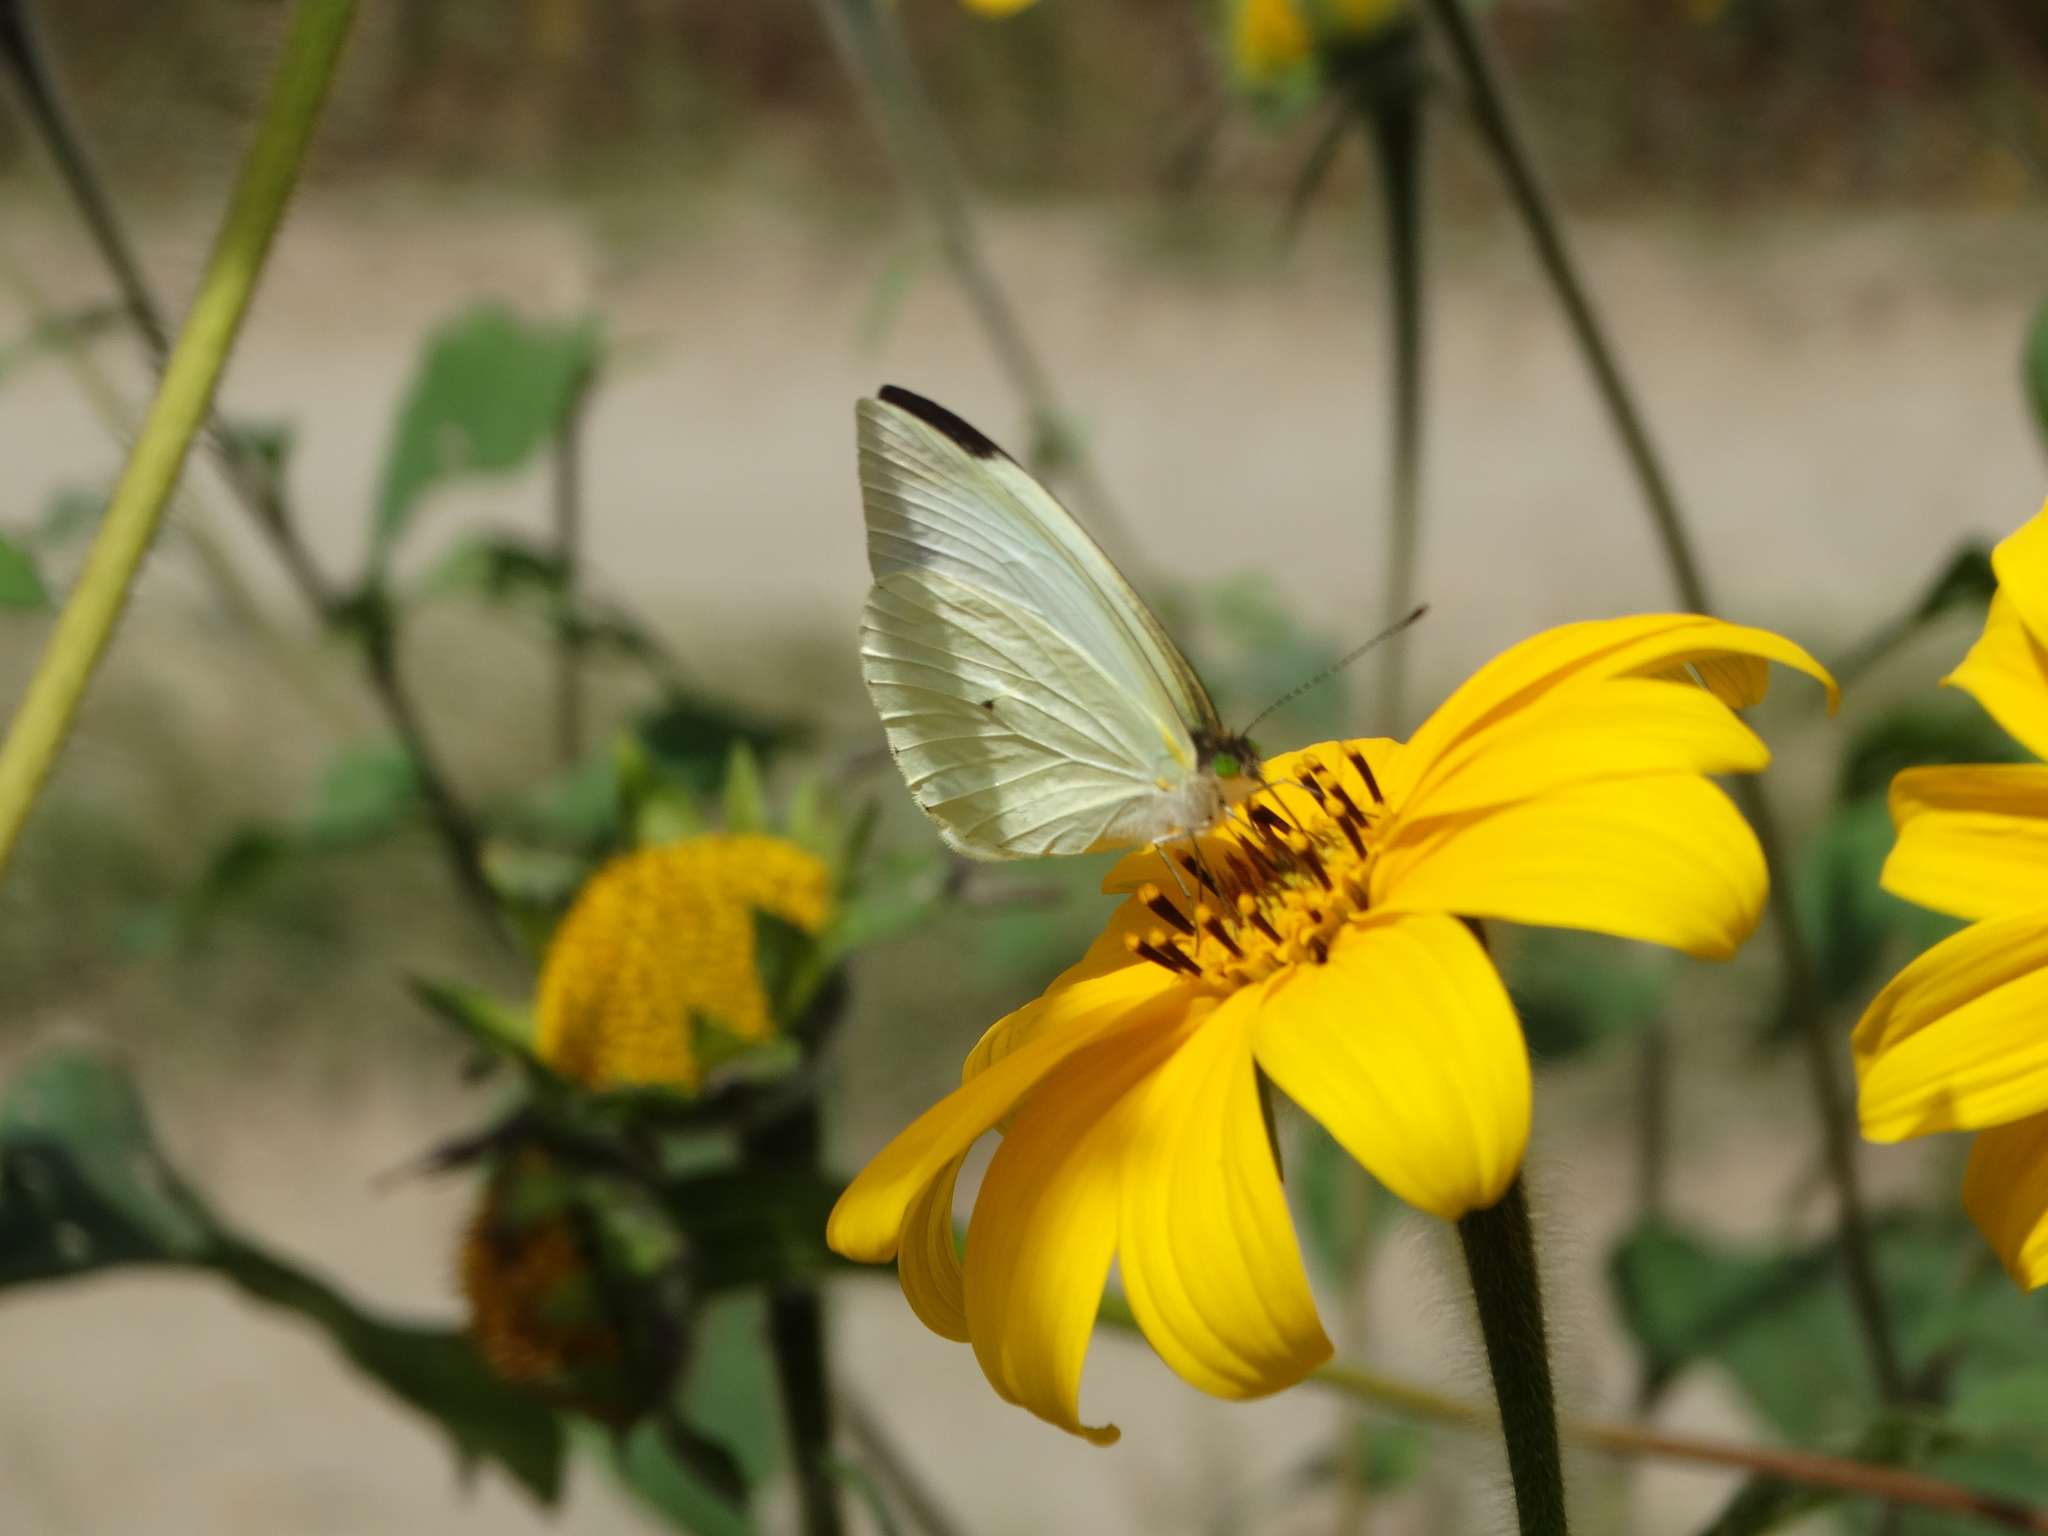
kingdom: Animalia
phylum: Arthropoda
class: Insecta
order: Lepidoptera
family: Pieridae
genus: Leptophobia
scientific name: Leptophobia aripa
